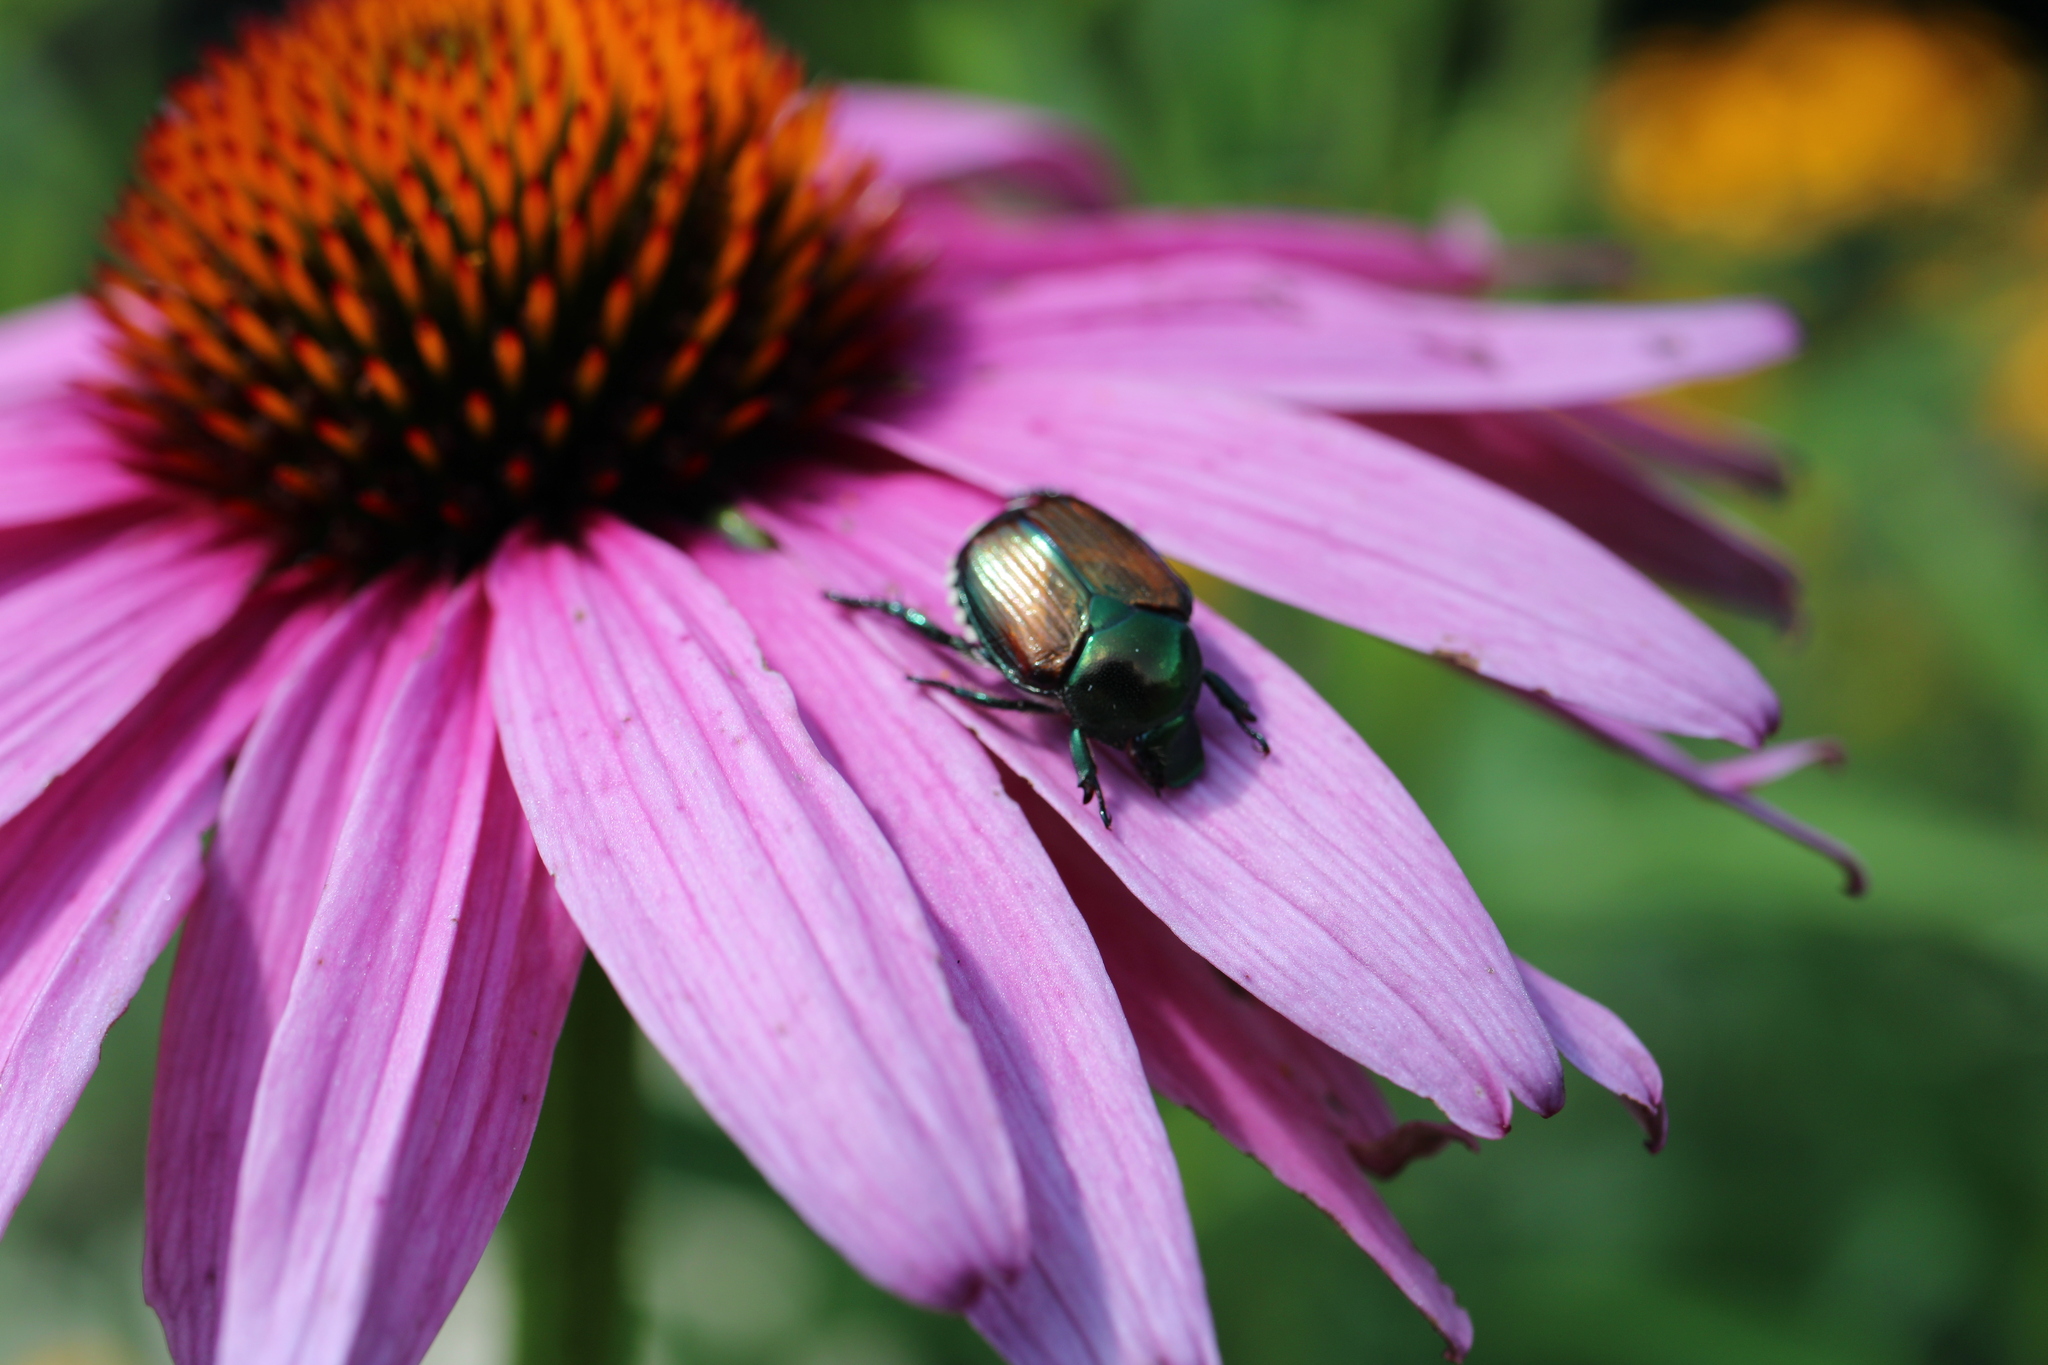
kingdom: Animalia
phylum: Arthropoda
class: Insecta
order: Coleoptera
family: Scarabaeidae
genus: Popillia
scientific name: Popillia japonica
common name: Japanese beetle
